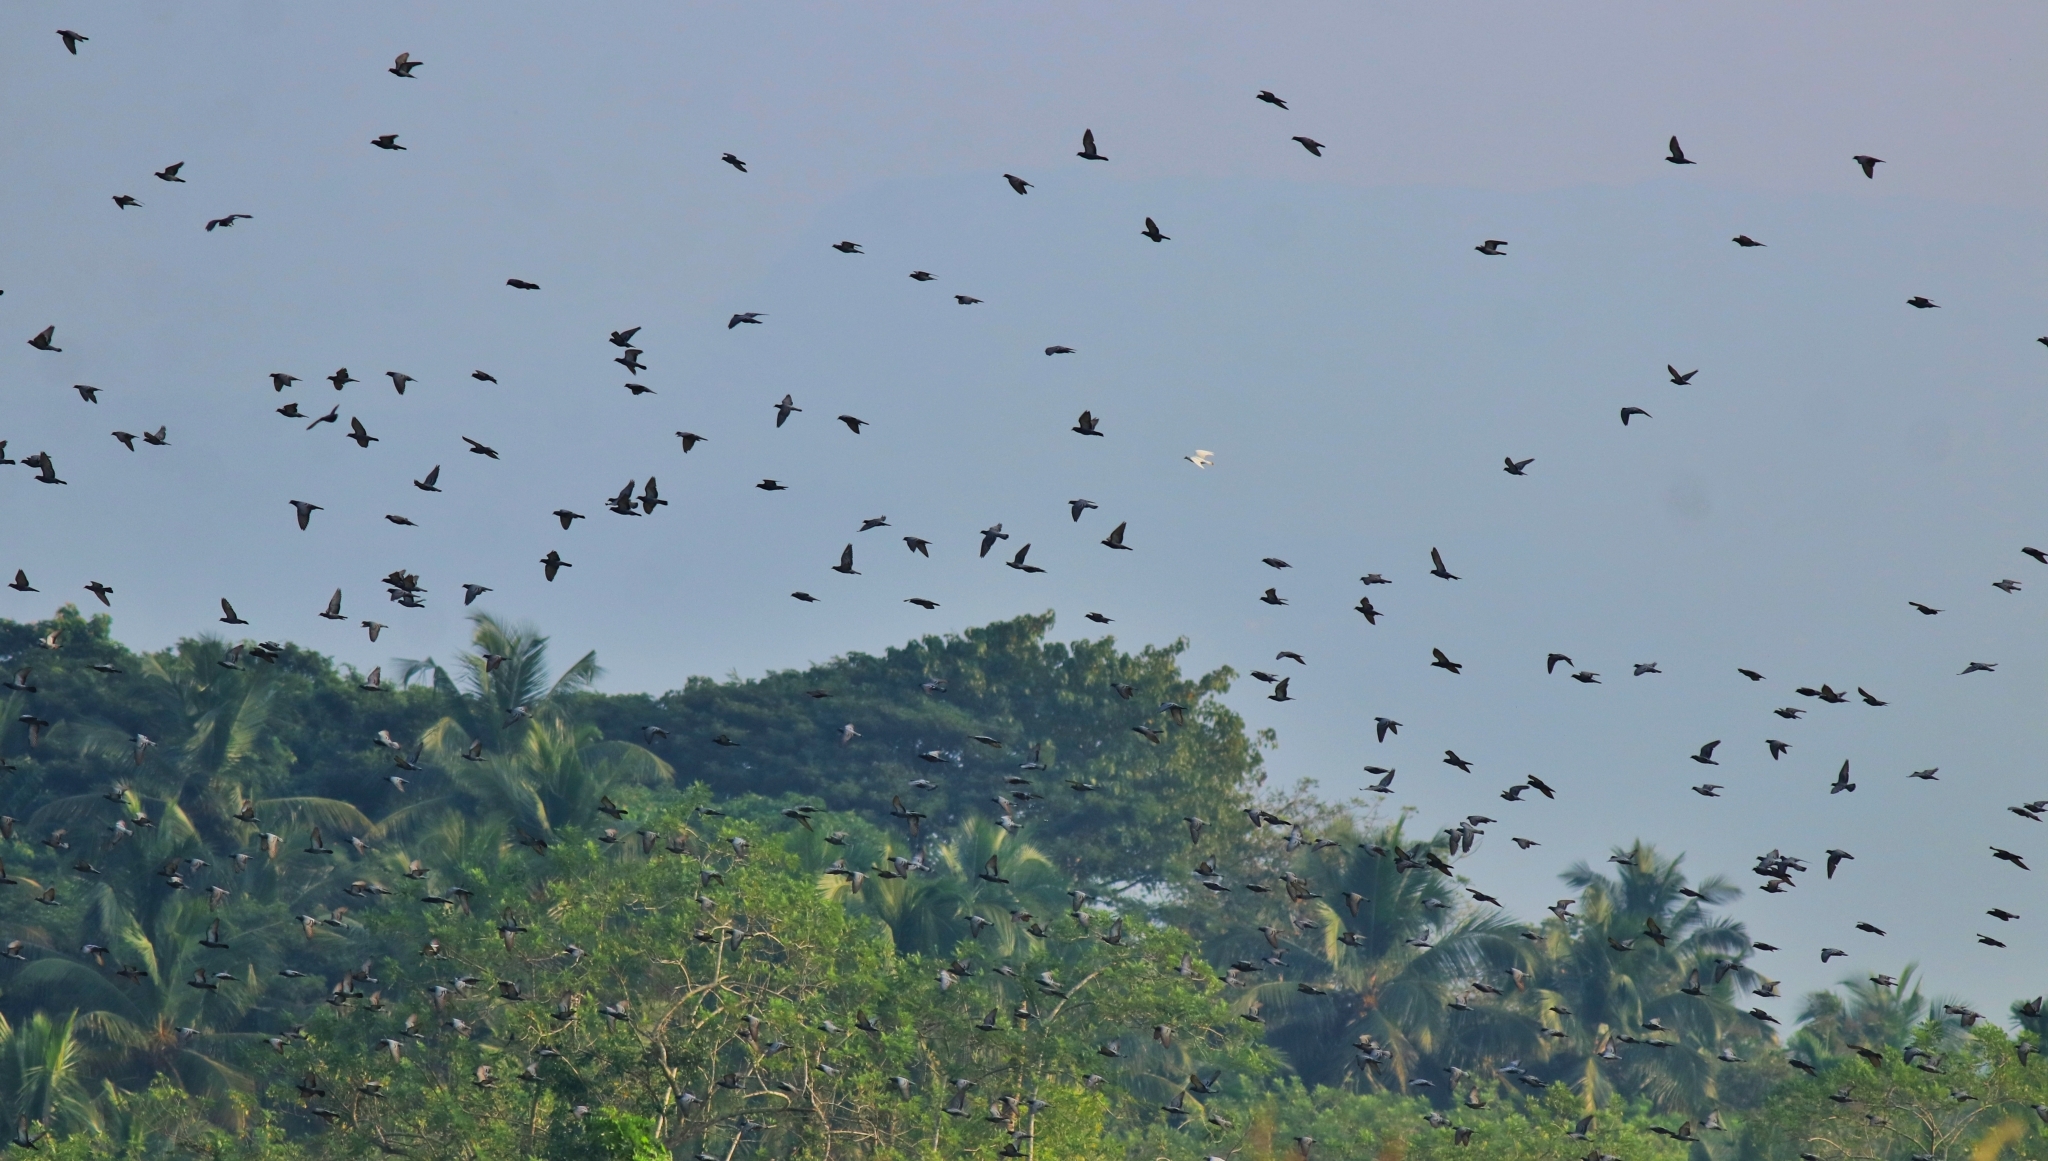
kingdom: Animalia
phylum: Chordata
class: Aves
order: Columbiformes
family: Columbidae
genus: Columba
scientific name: Columba livia
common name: Rock pigeon
